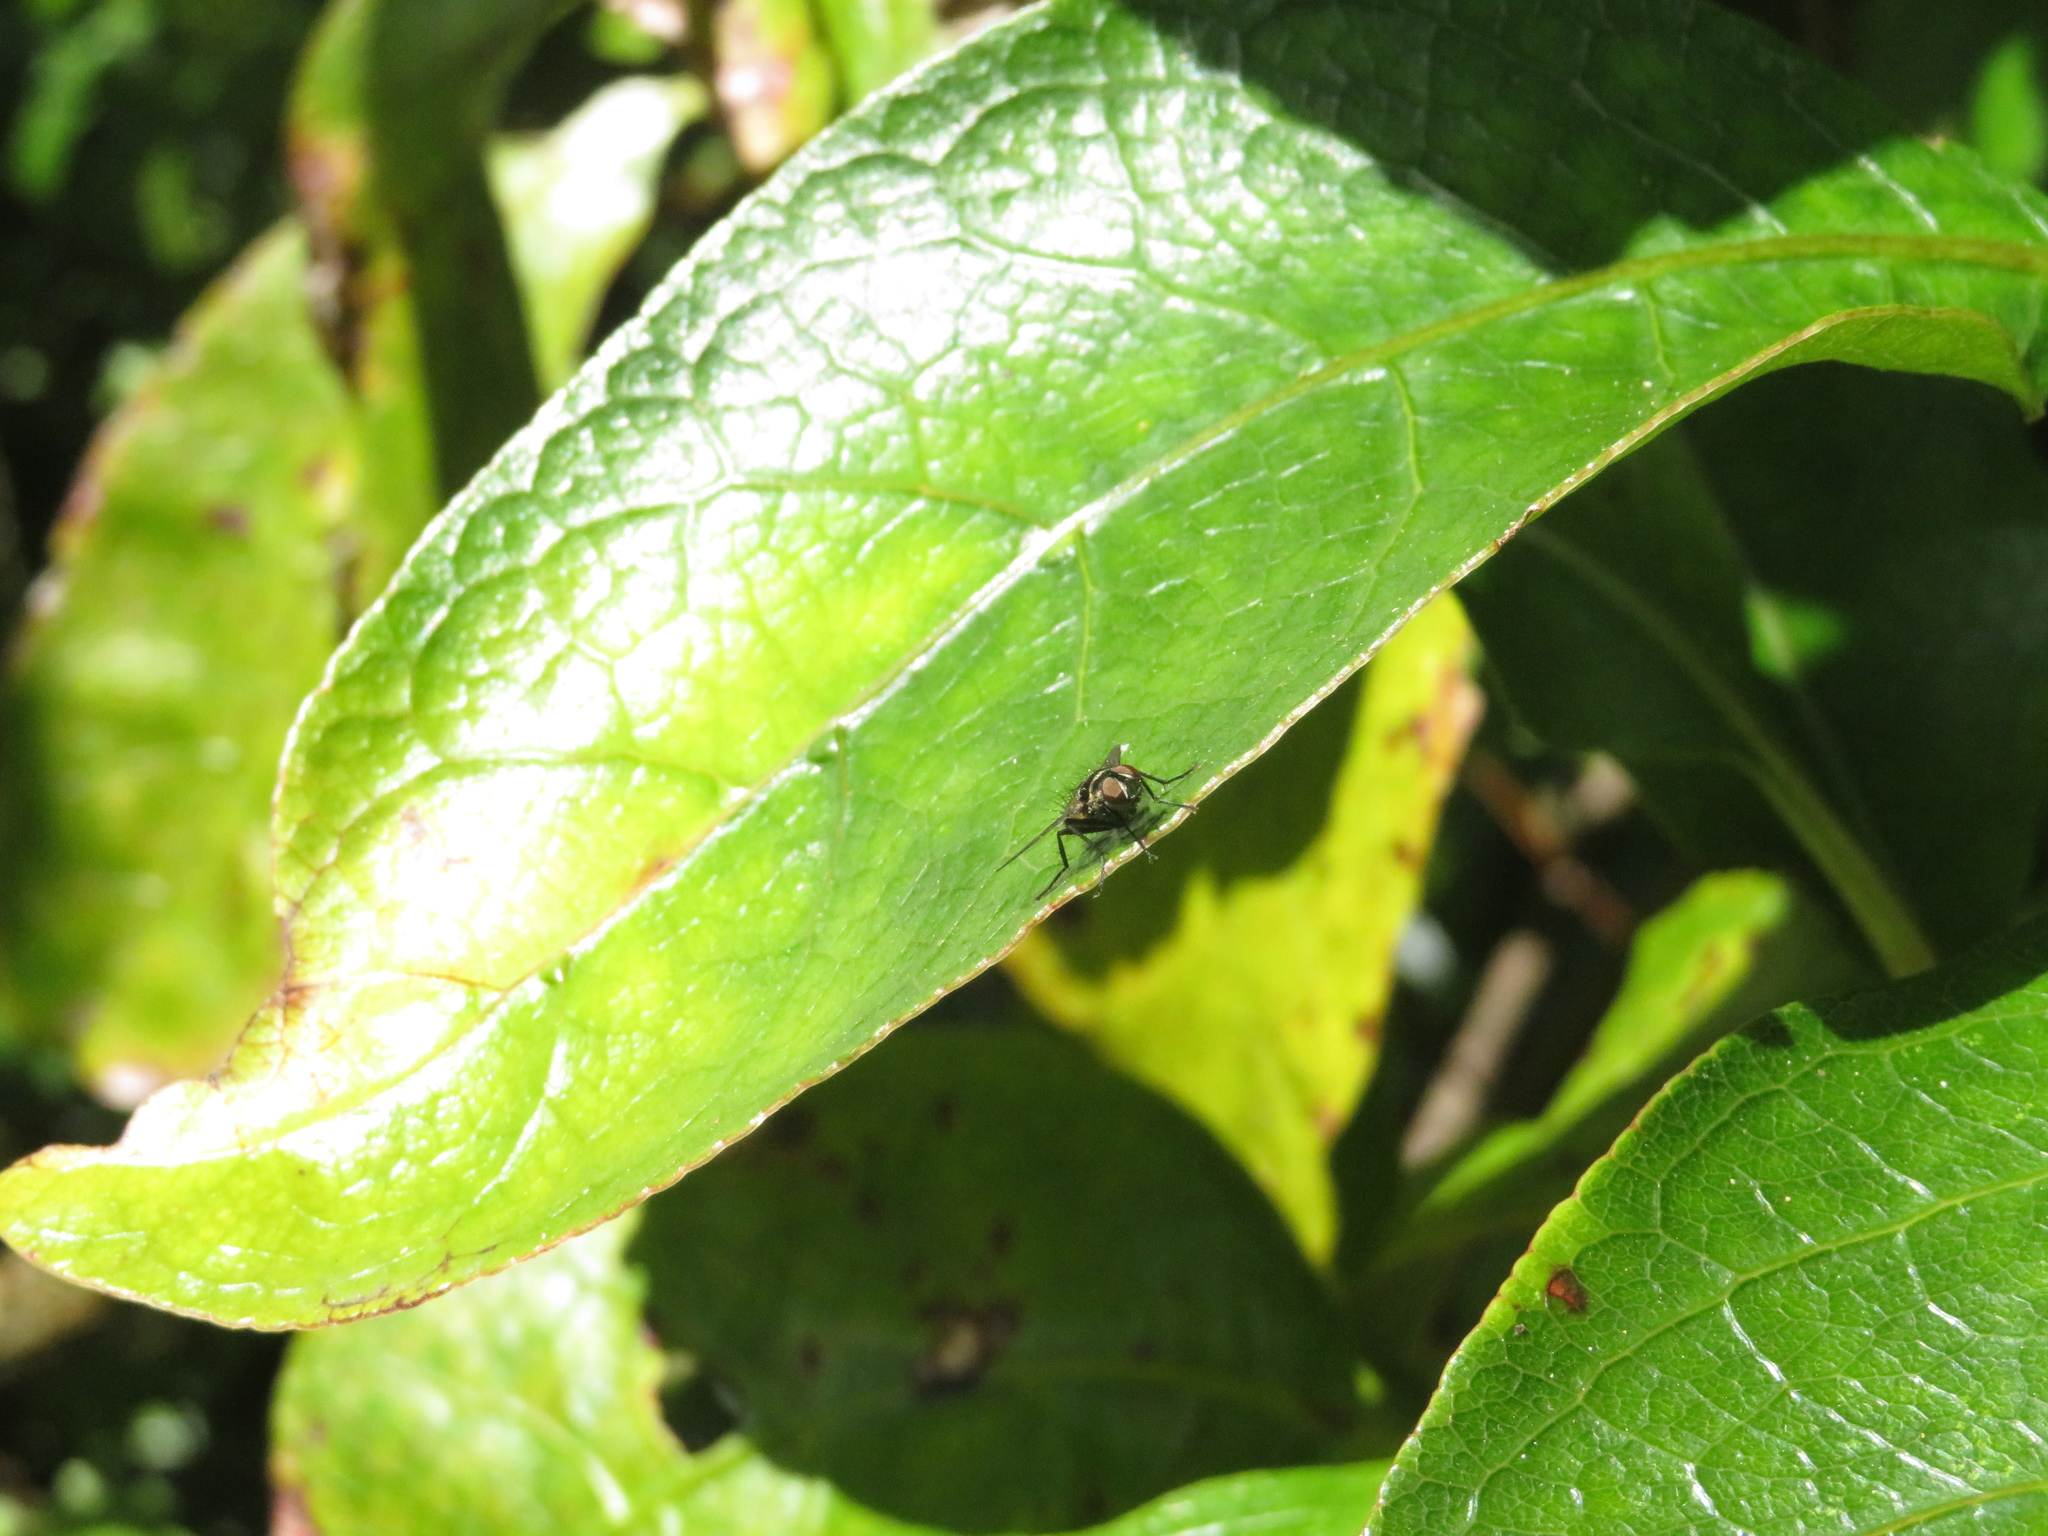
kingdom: Animalia
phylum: Arthropoda
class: Insecta
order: Diptera
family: Tachinidae
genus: Trigonospila
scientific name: Trigonospila brevifacies
